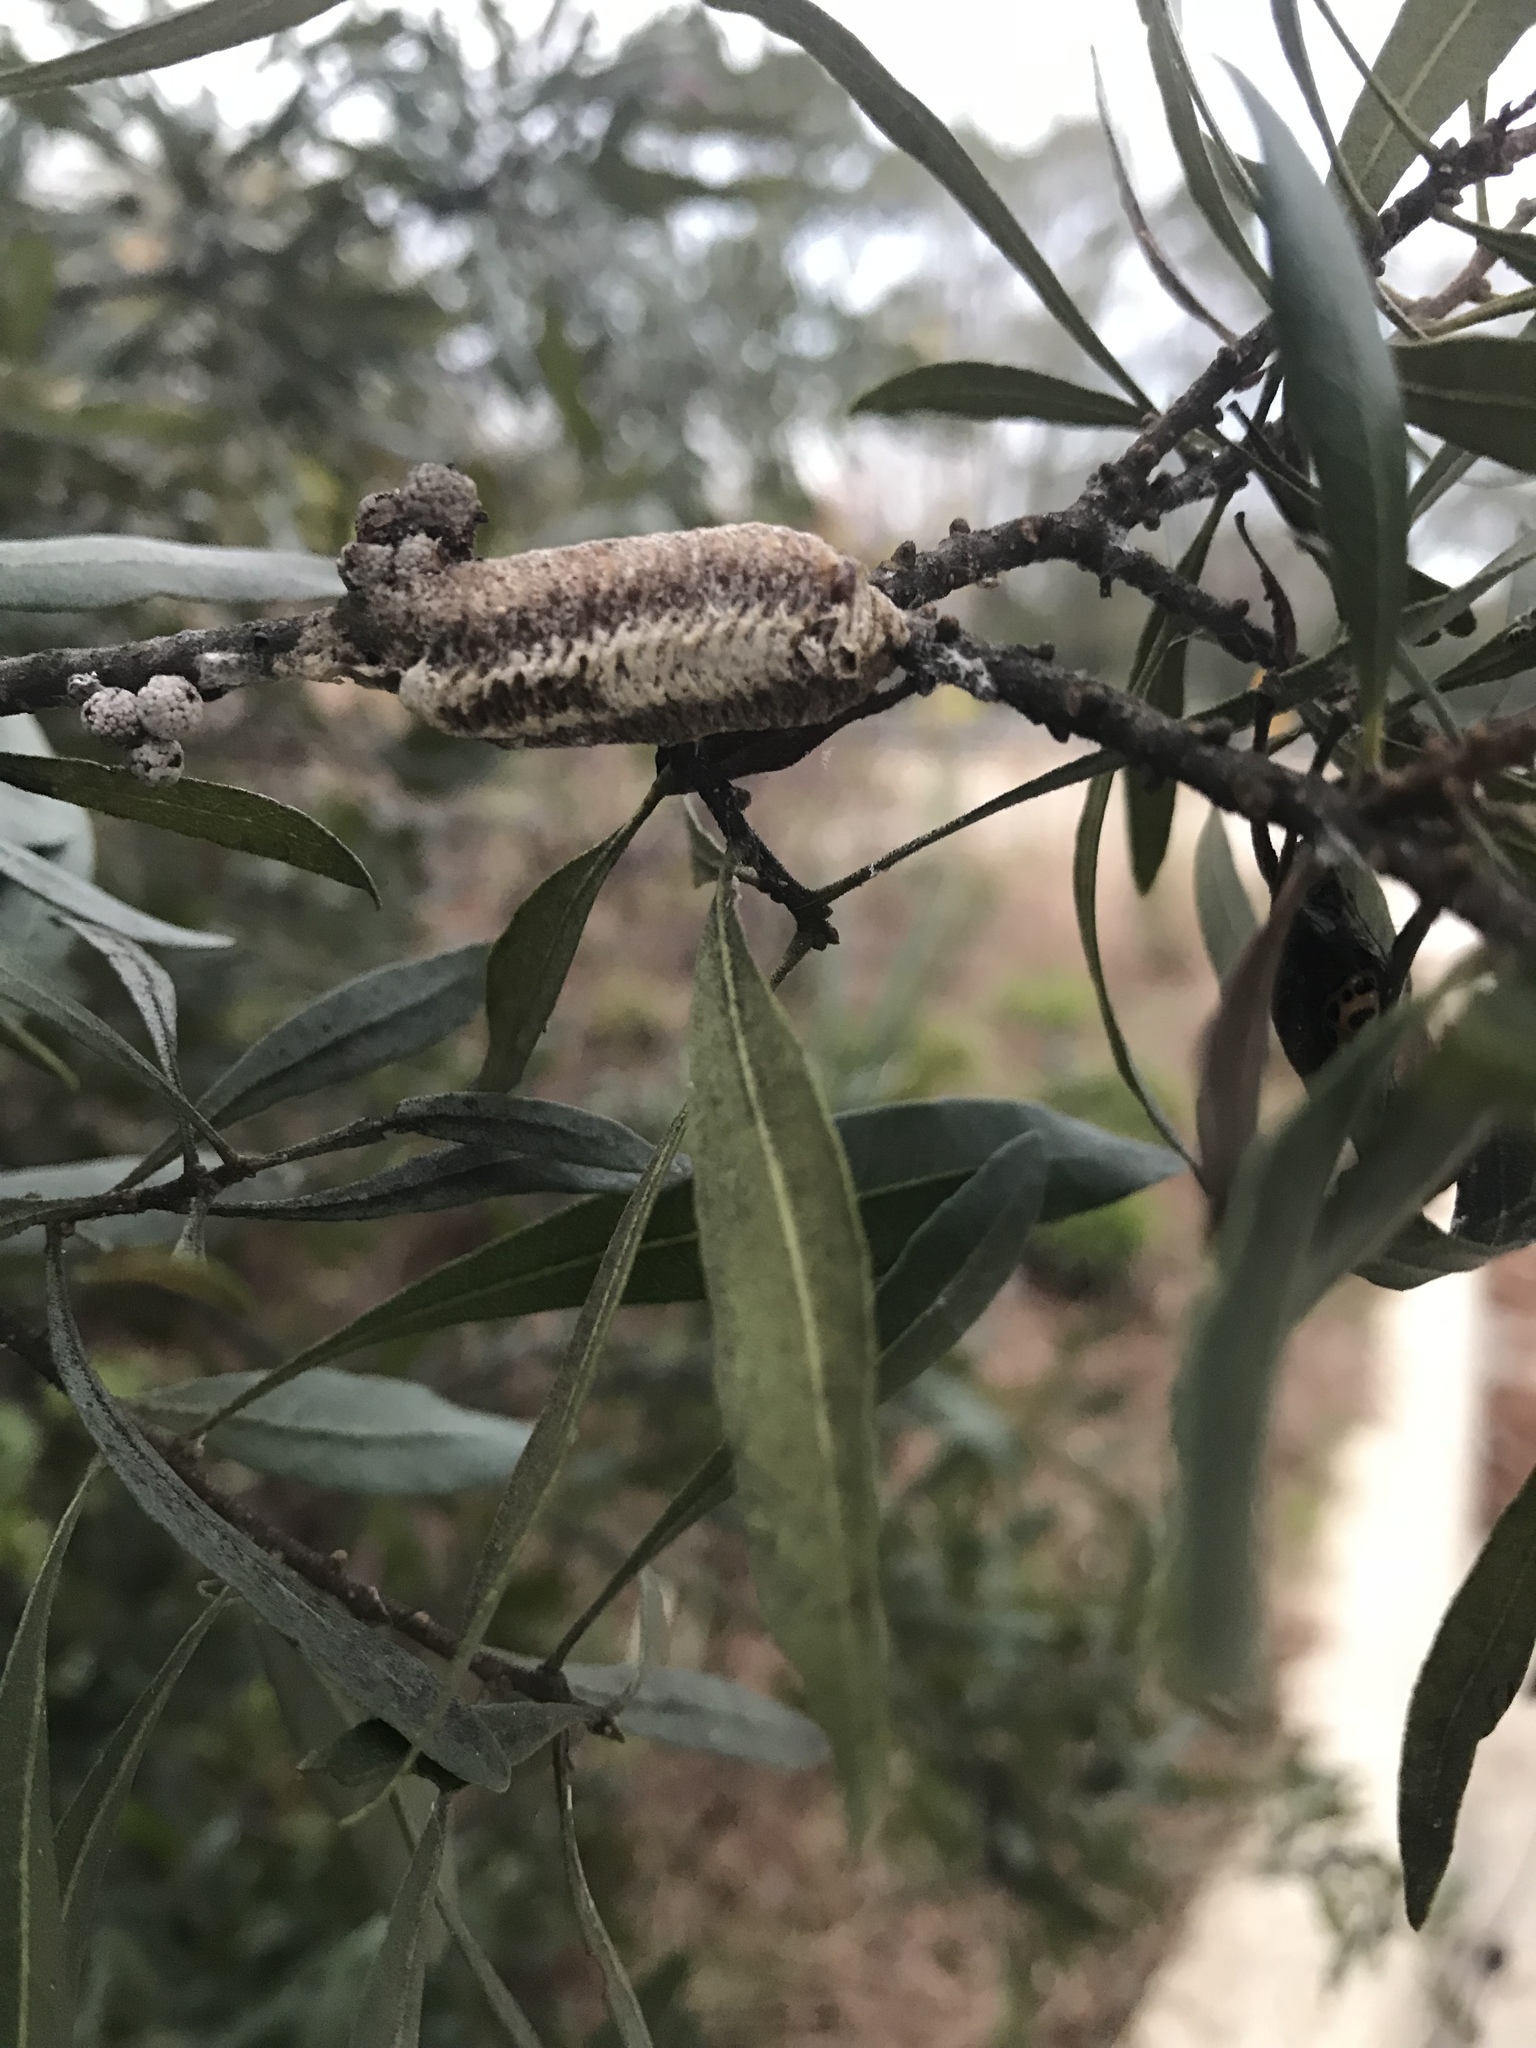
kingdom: Animalia
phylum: Arthropoda
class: Insecta
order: Mantodea
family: Mantidae
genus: Stagmomantis
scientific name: Stagmomantis carolina
